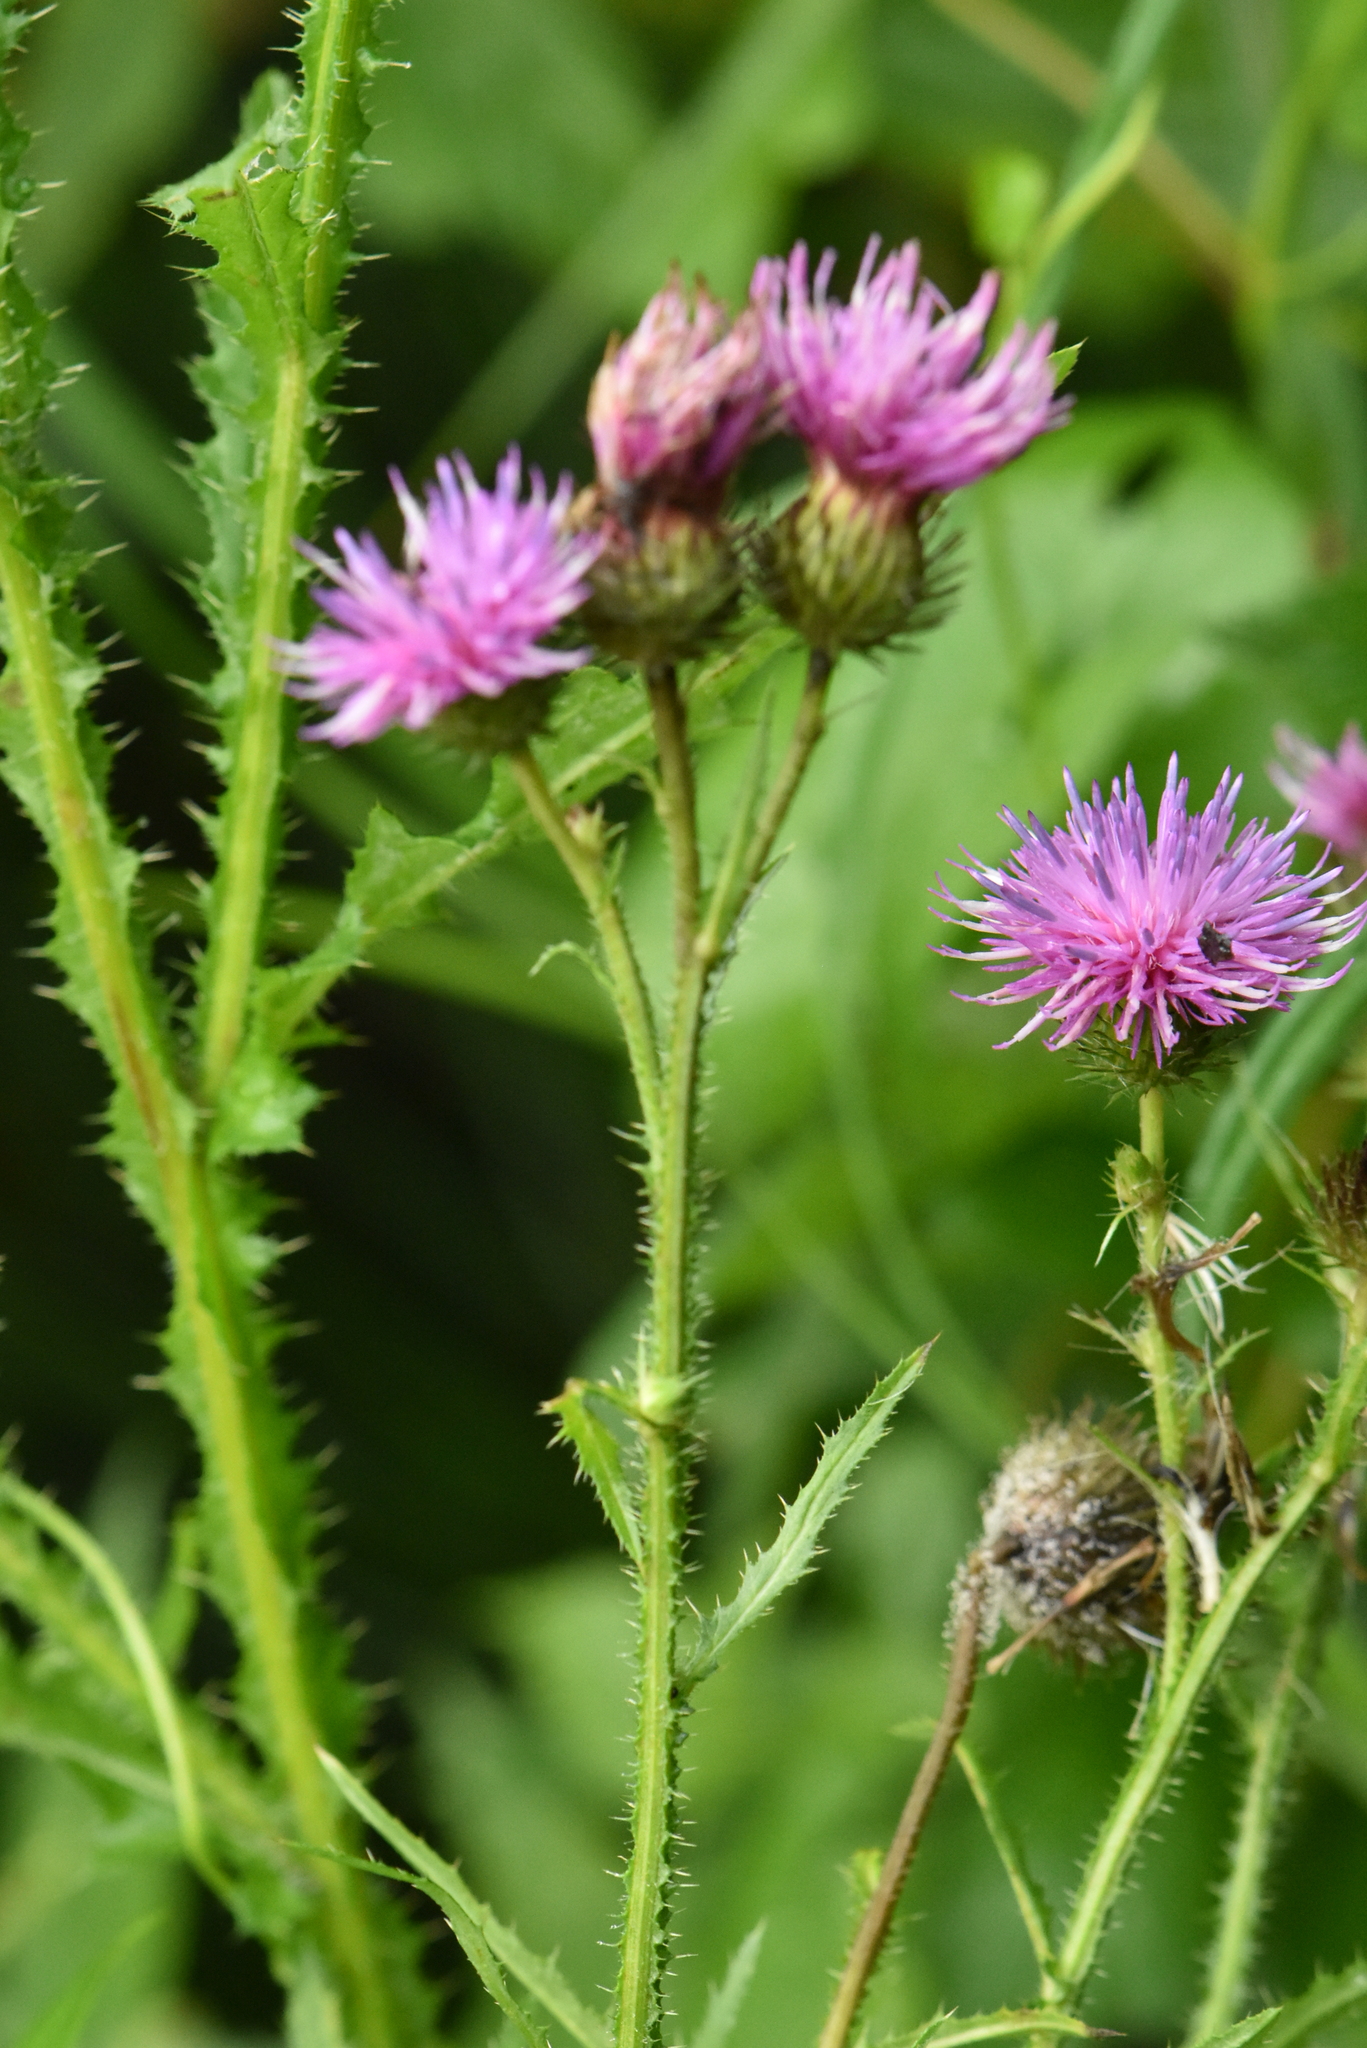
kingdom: Plantae
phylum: Tracheophyta
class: Magnoliopsida
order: Asterales
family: Asteraceae
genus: Carduus
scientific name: Carduus crispus
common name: Welted thistle
